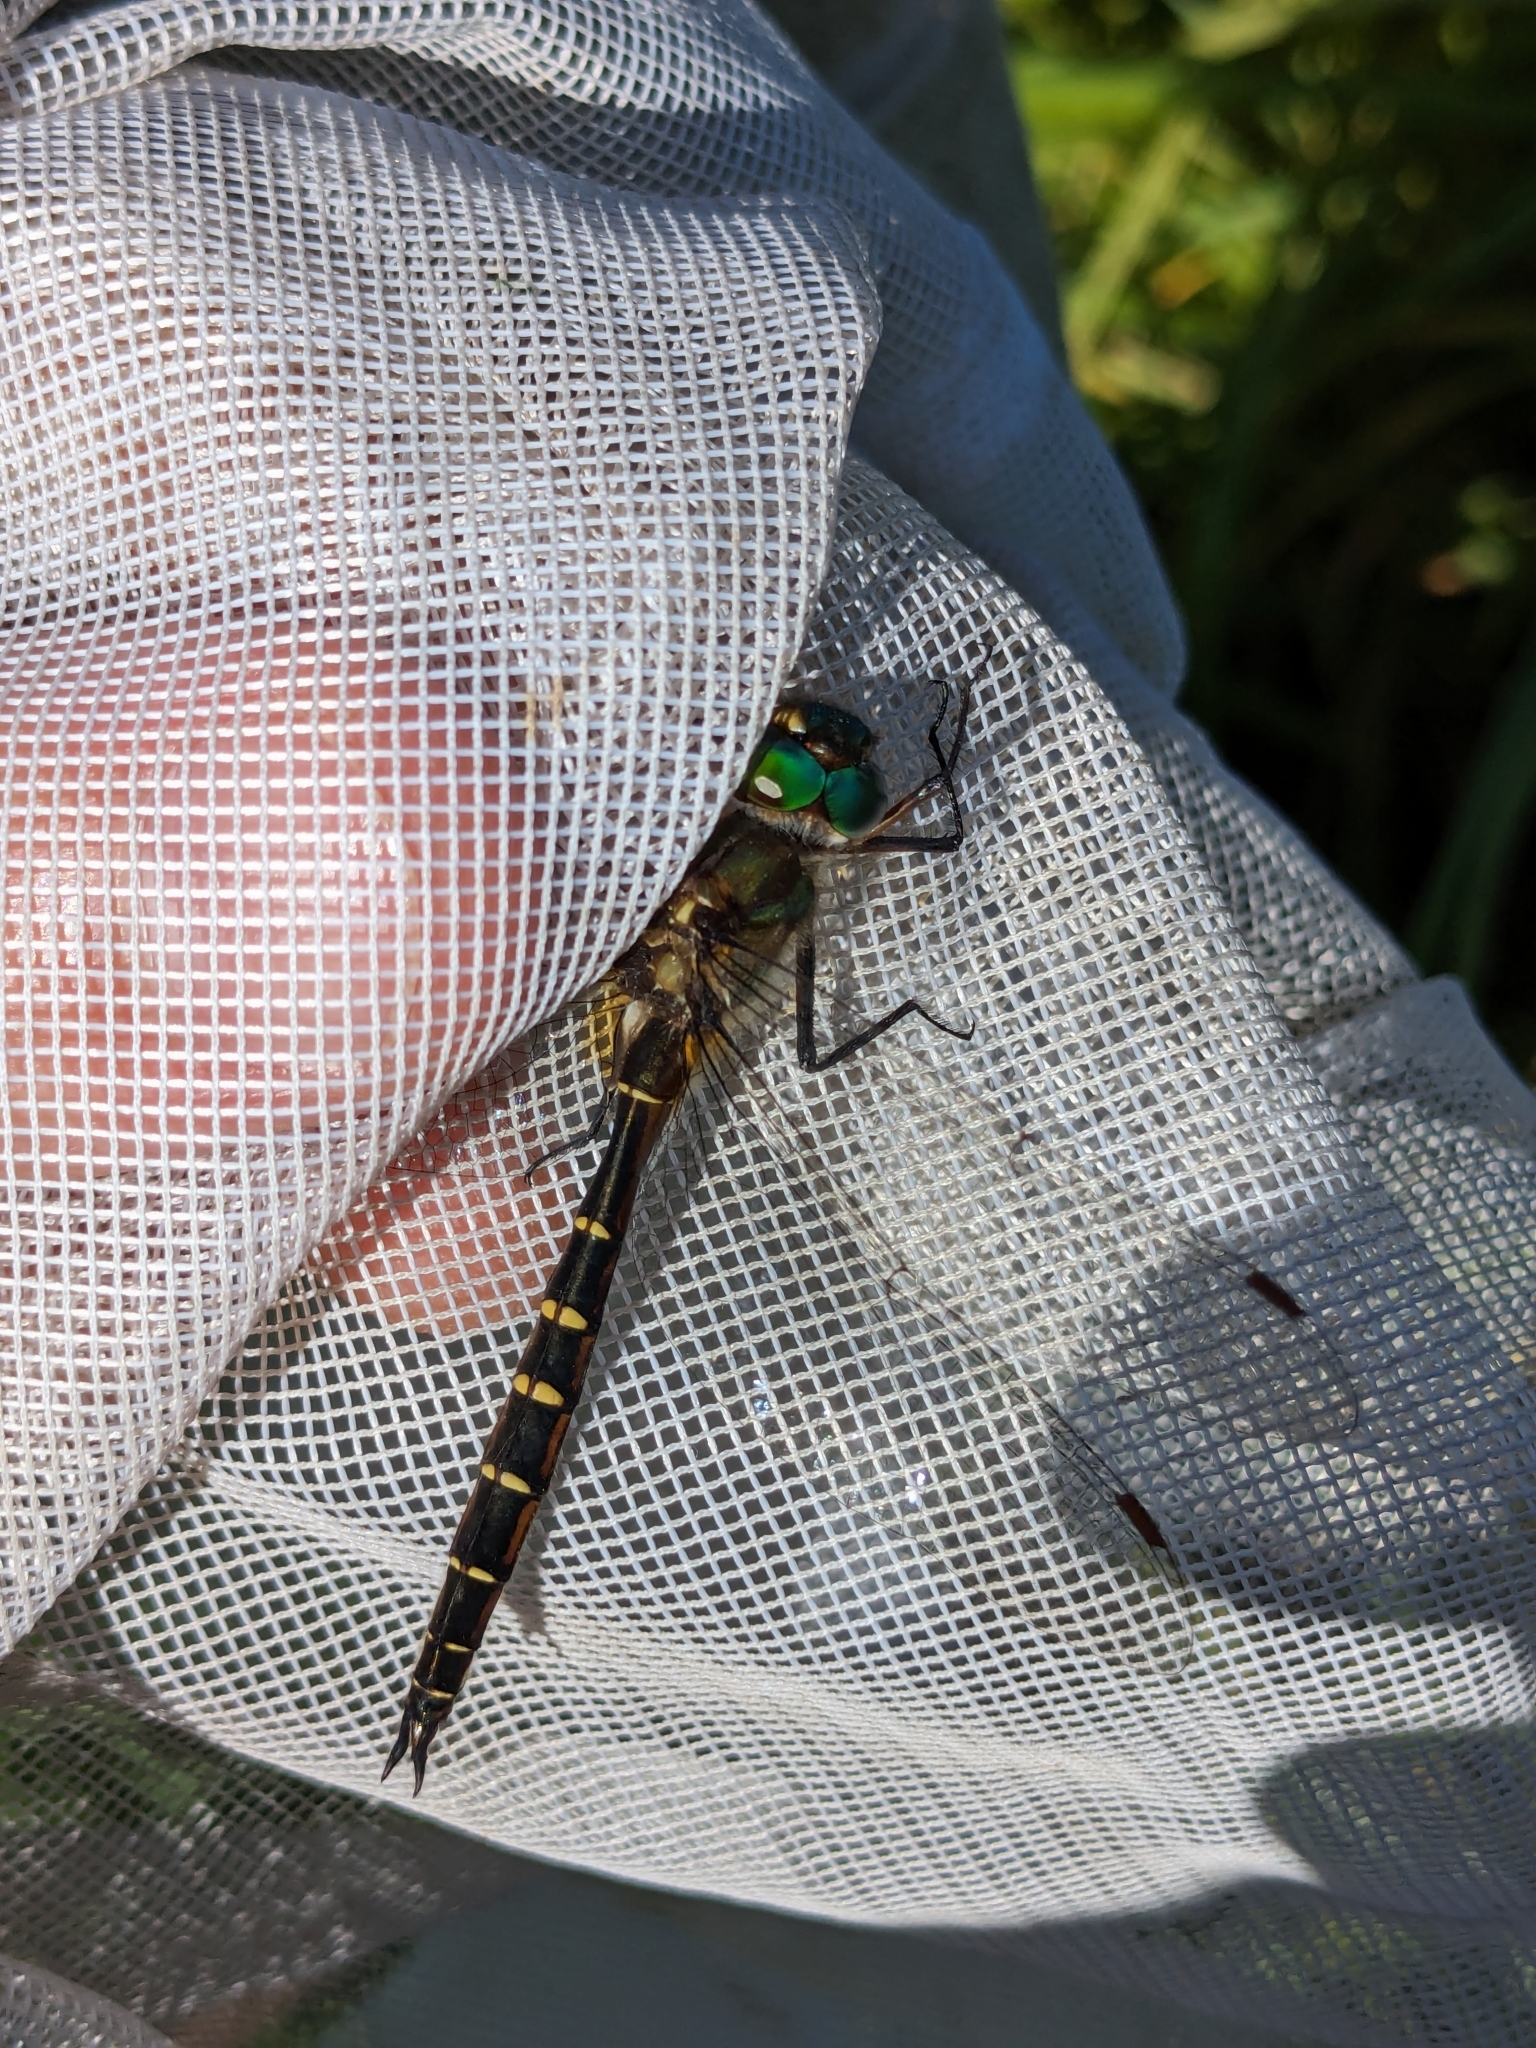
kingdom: Animalia
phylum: Arthropoda
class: Insecta
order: Odonata
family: Corduliidae
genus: Procordulia
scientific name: Procordulia smithii
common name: Ranger dragonfly
